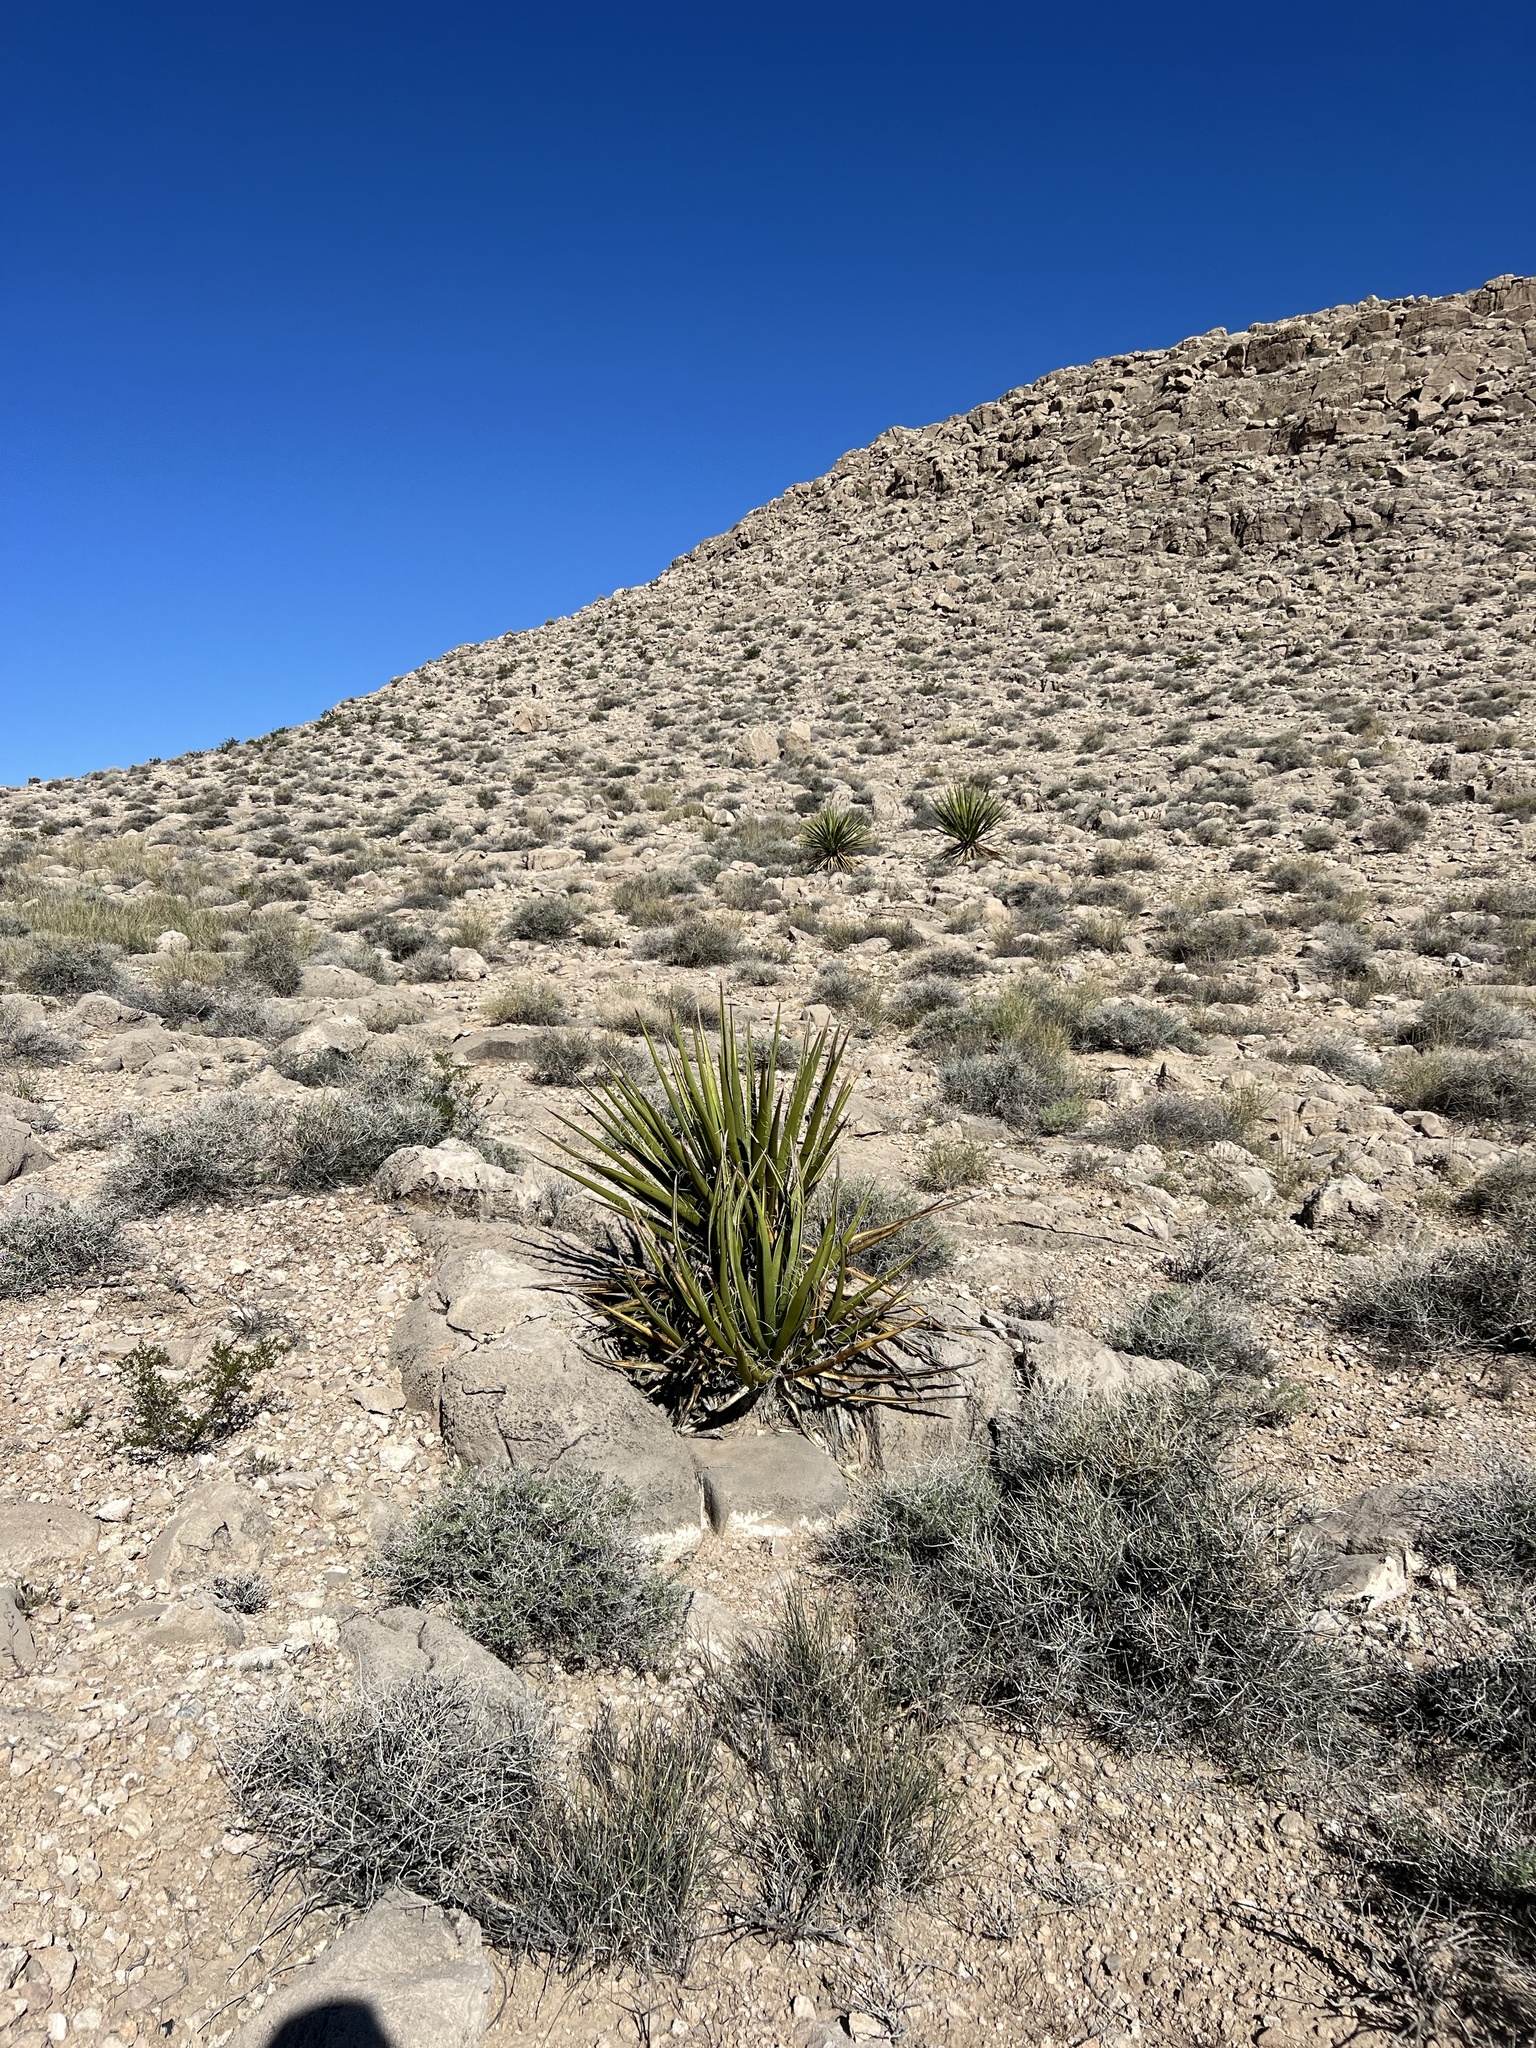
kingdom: Plantae
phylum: Tracheophyta
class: Liliopsida
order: Asparagales
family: Asparagaceae
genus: Yucca
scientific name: Yucca schidigera
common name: Mojave yucca
